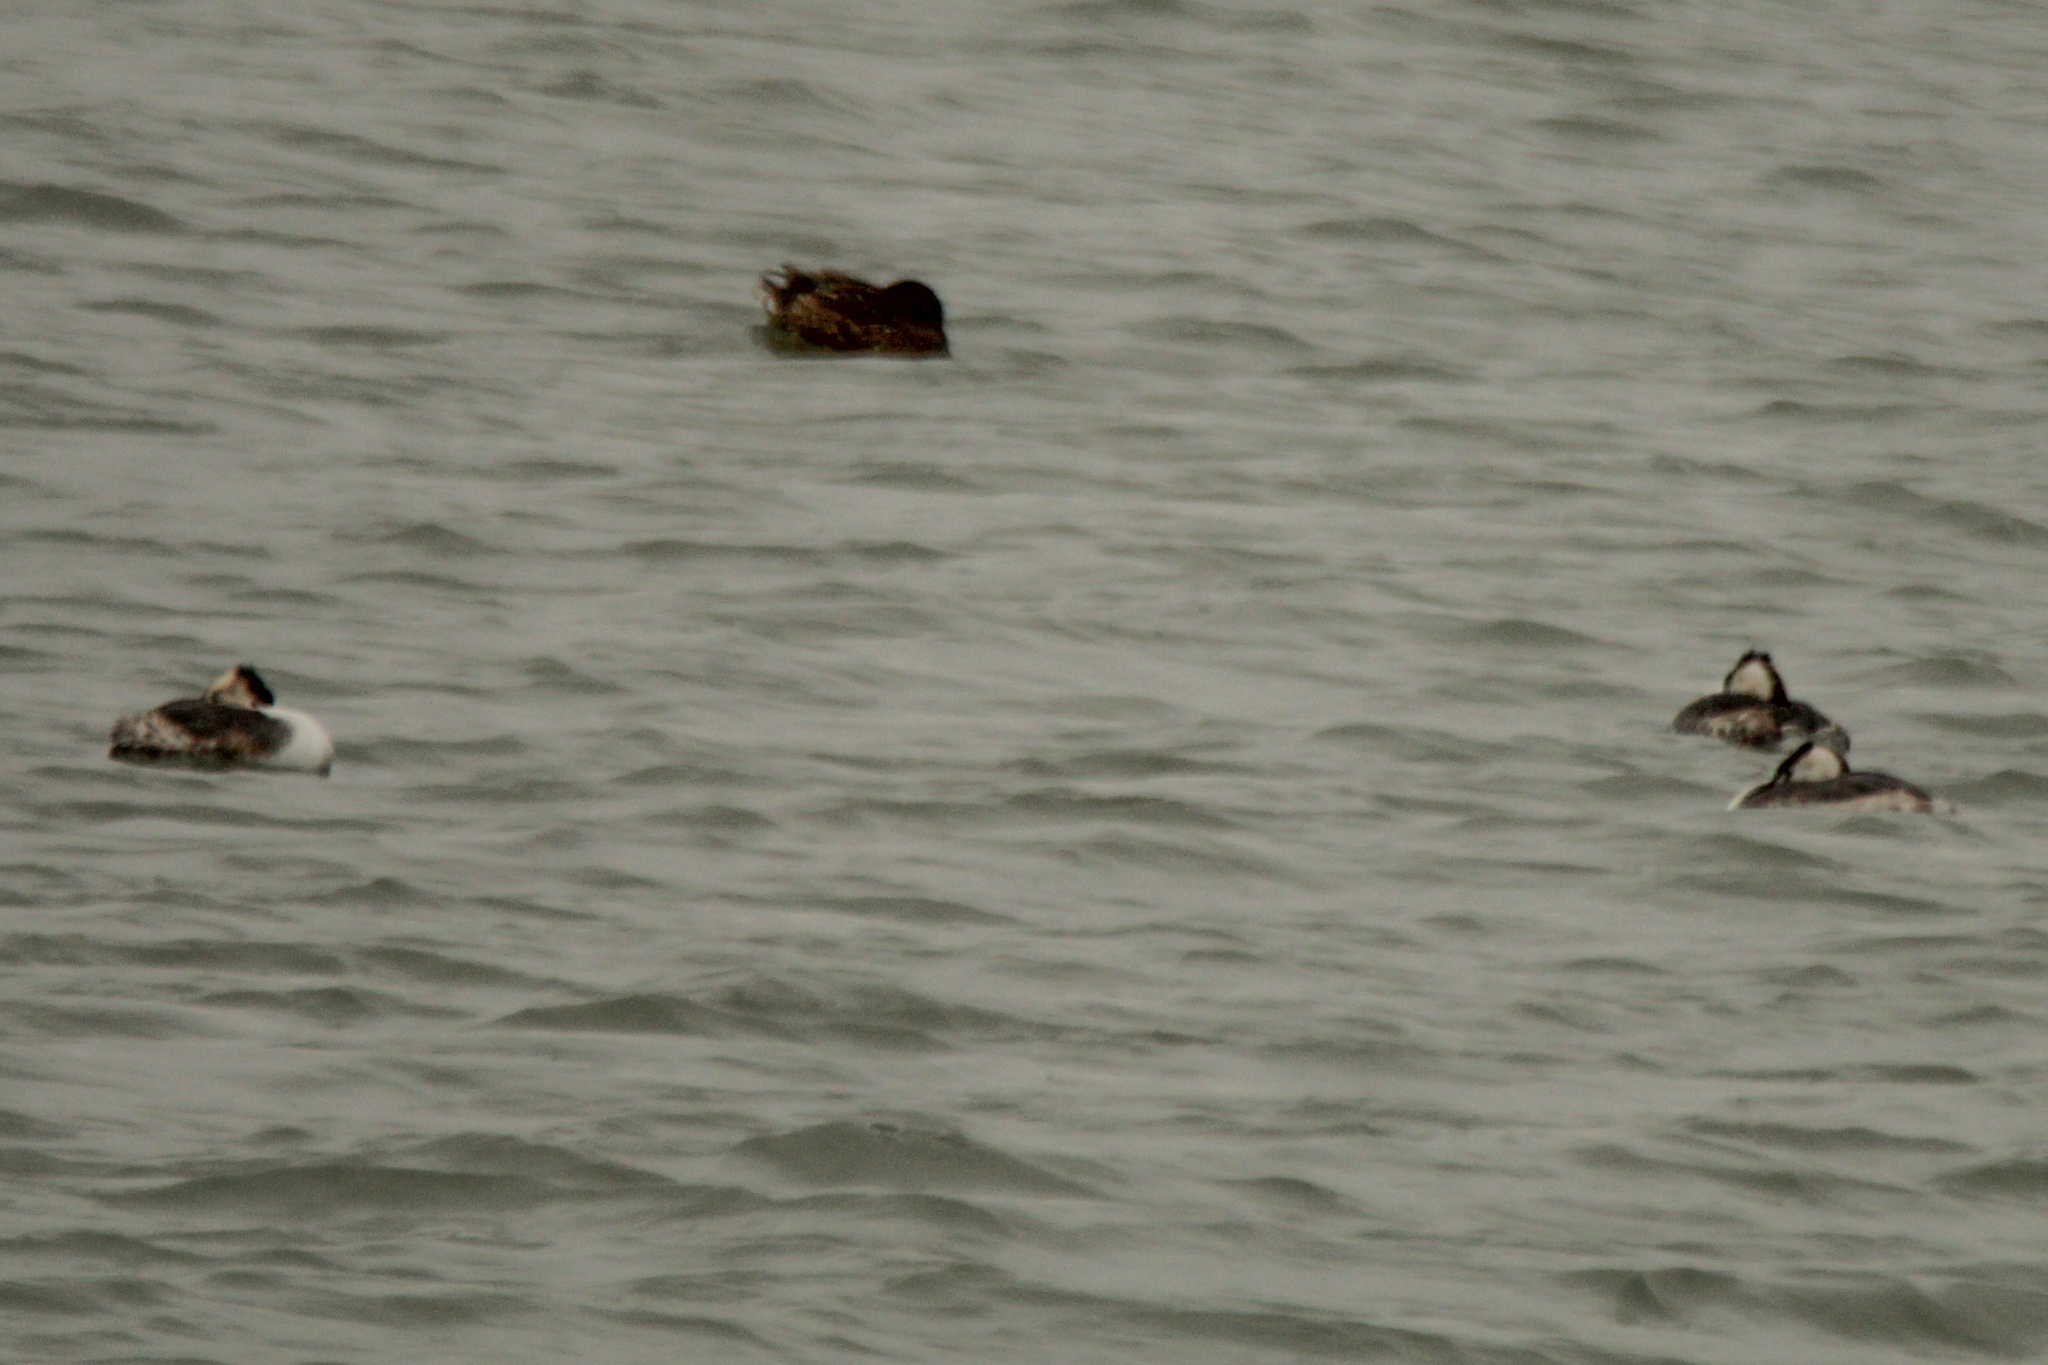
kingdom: Animalia
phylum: Chordata
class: Aves
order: Podicipediformes
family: Podicipedidae
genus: Podiceps
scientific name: Podiceps cristatus
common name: Great crested grebe
